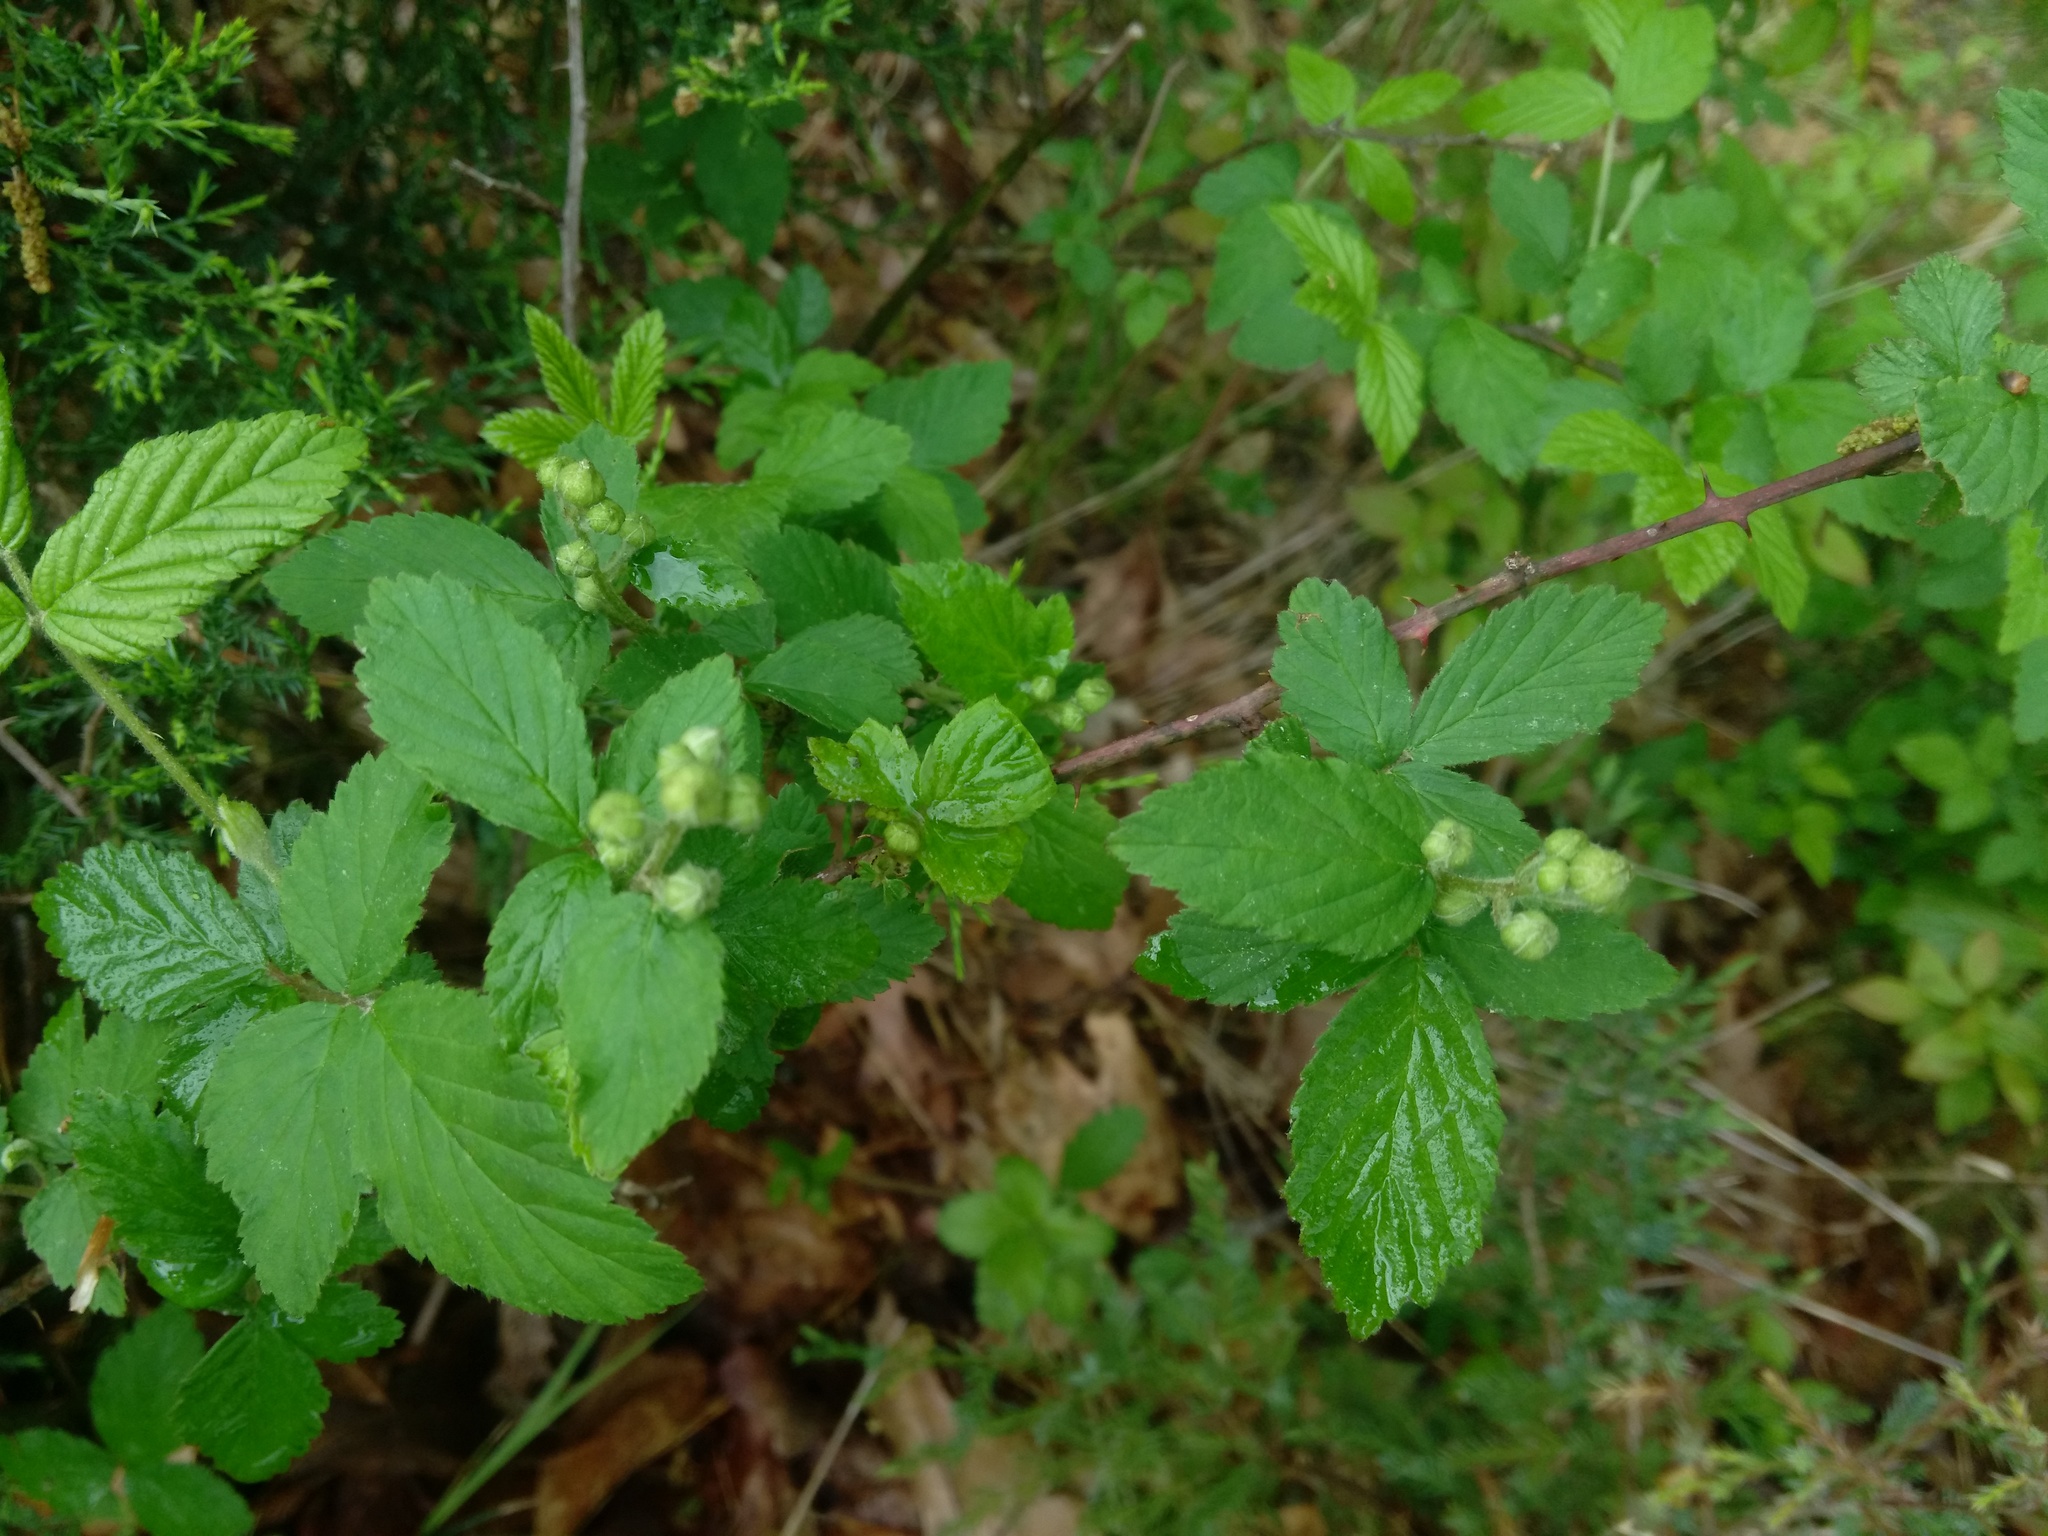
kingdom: Plantae
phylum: Tracheophyta
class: Magnoliopsida
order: Rosales
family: Rosaceae
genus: Rubus
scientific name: Rubus allegheniensis
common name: Allegheny blackberry
